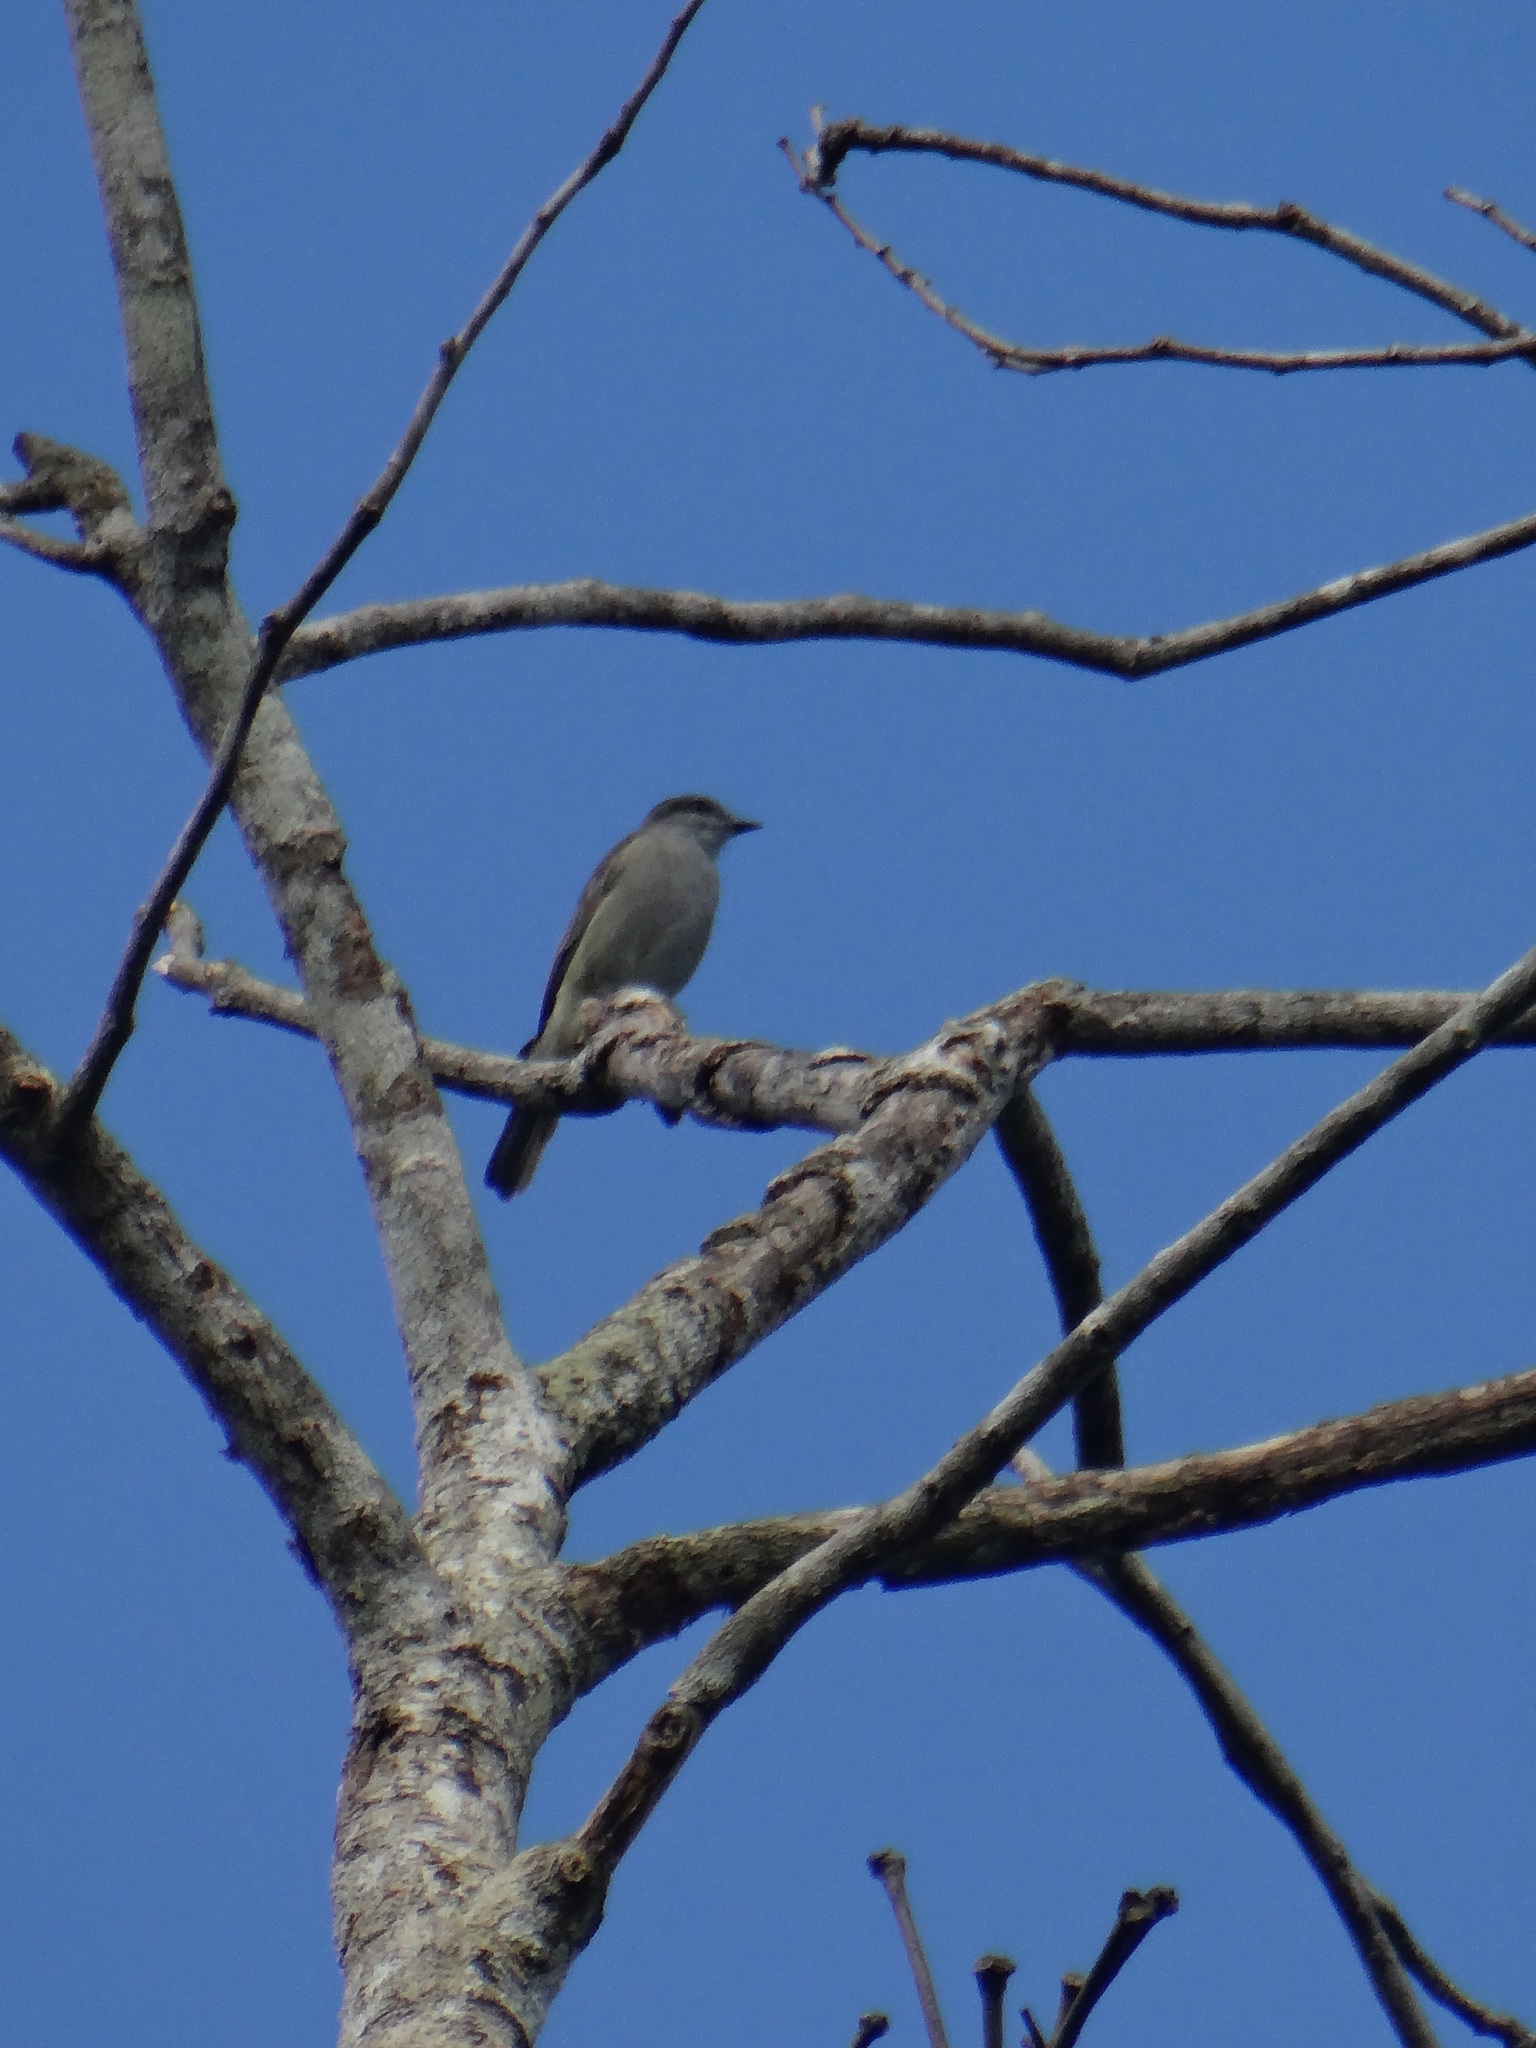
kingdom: Animalia
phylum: Chordata
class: Aves
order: Passeriformes
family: Tyrannidae
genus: Empidonomus
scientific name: Empidonomus aurantioatrocristatus
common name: Crowned slaty flycatcher
